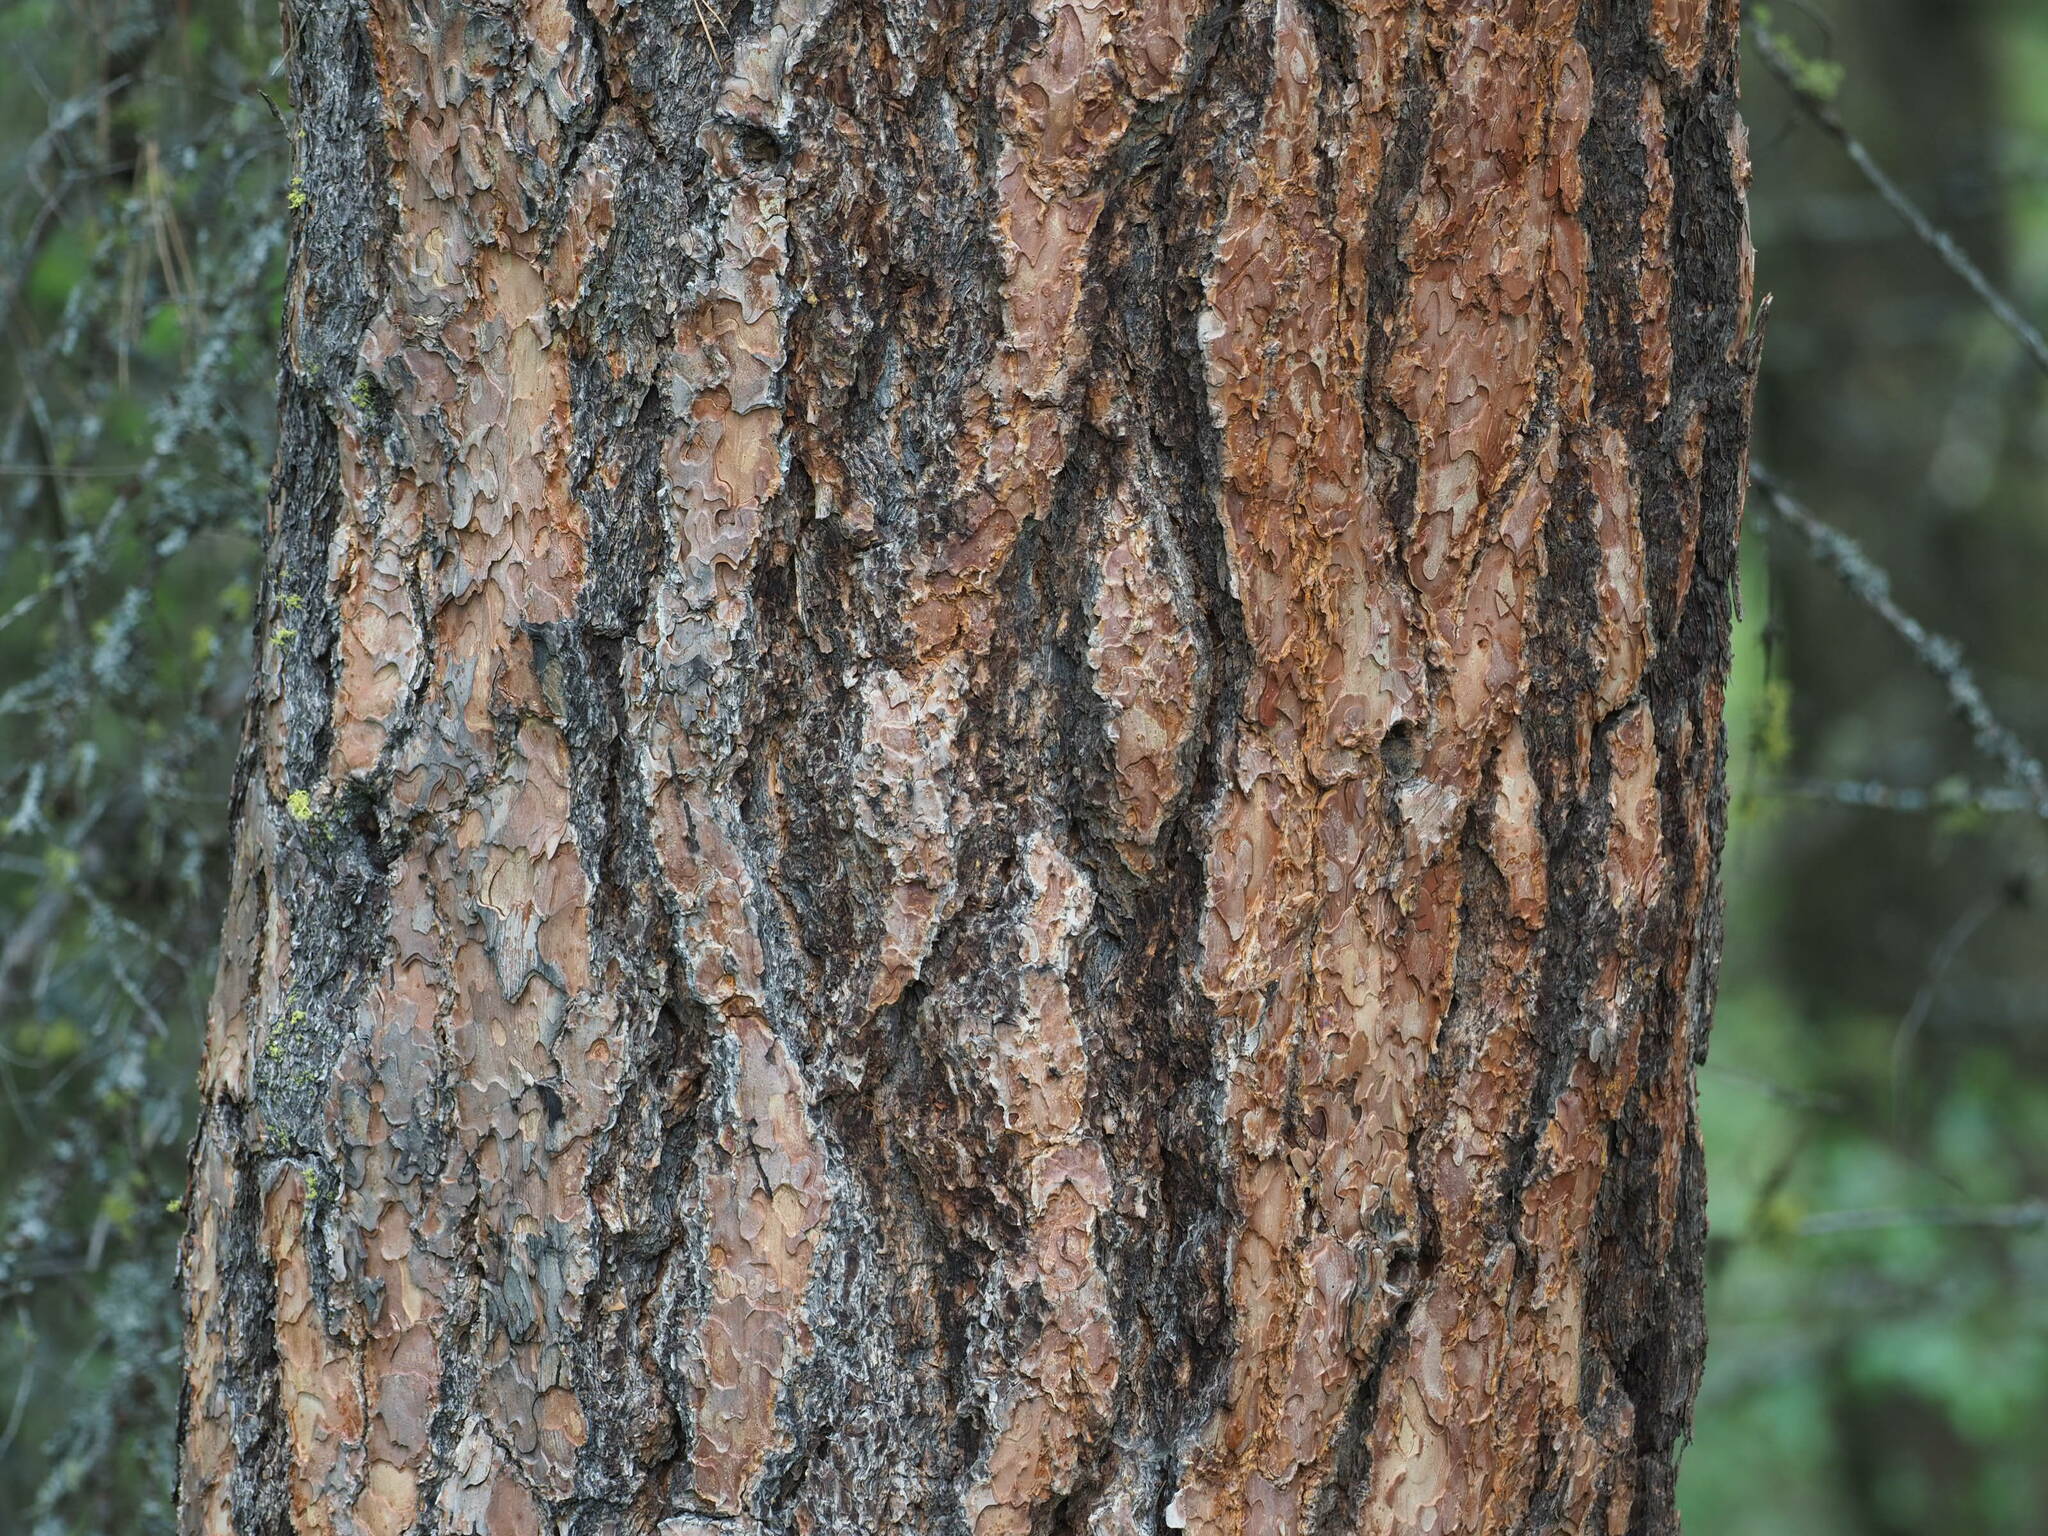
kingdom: Plantae
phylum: Tracheophyta
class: Pinopsida
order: Pinales
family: Pinaceae
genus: Pinus
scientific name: Pinus ponderosa
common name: Western yellow-pine
